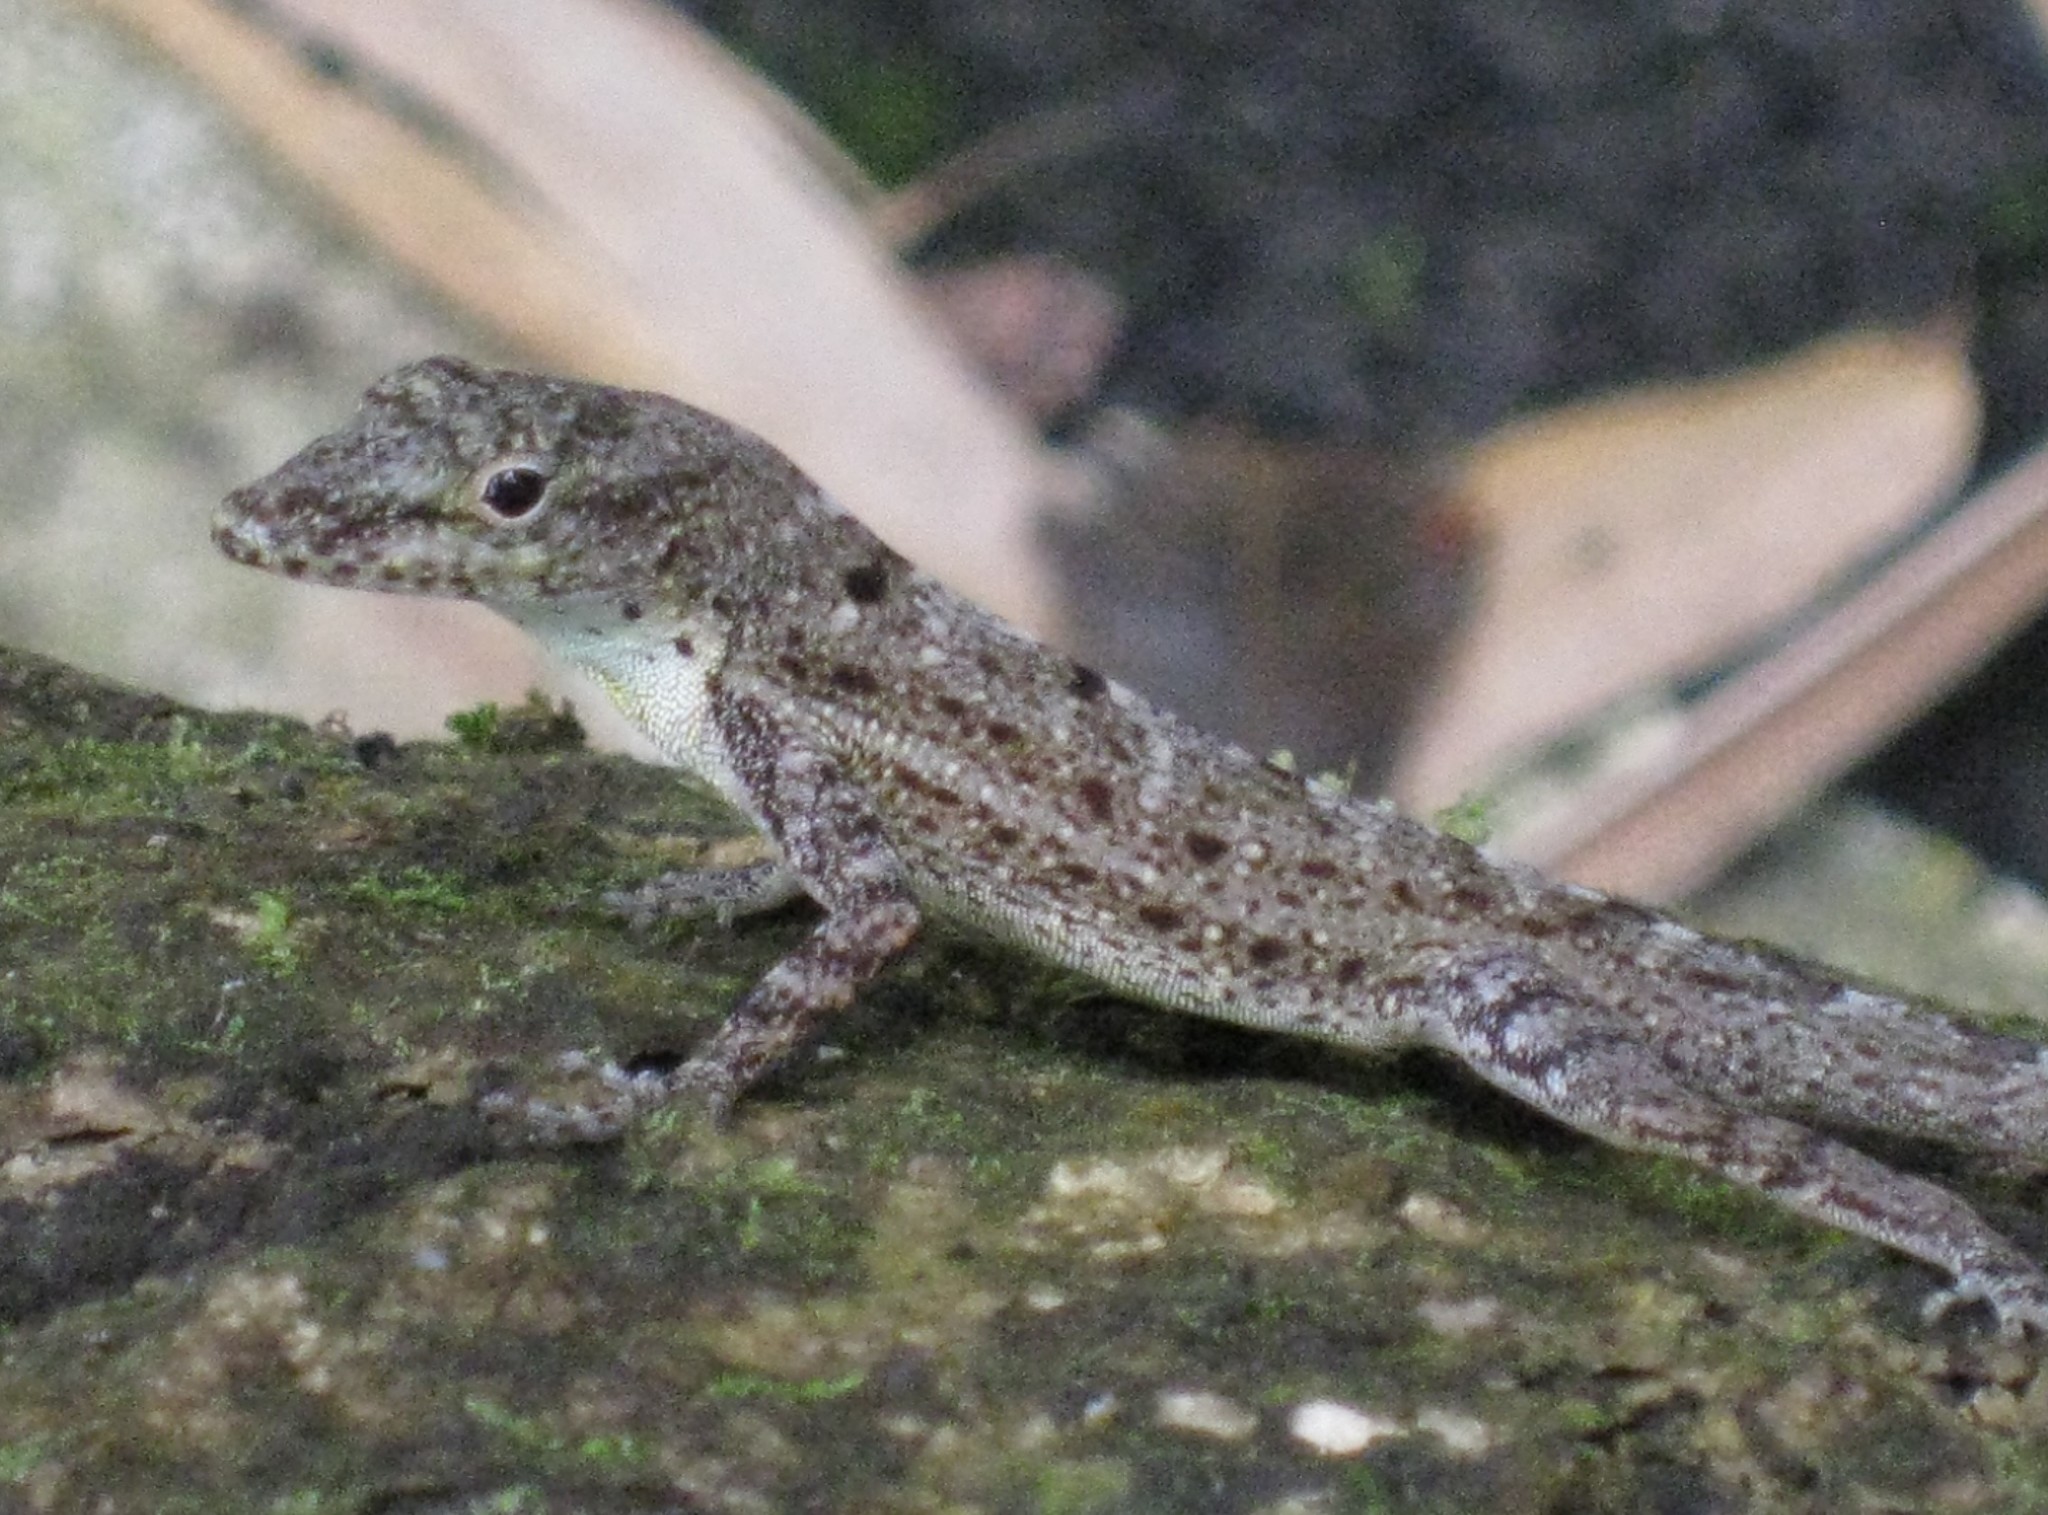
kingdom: Animalia
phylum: Chordata
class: Squamata
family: Dactyloidae
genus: Anolis
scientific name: Anolis stratulus
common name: Banded anole
